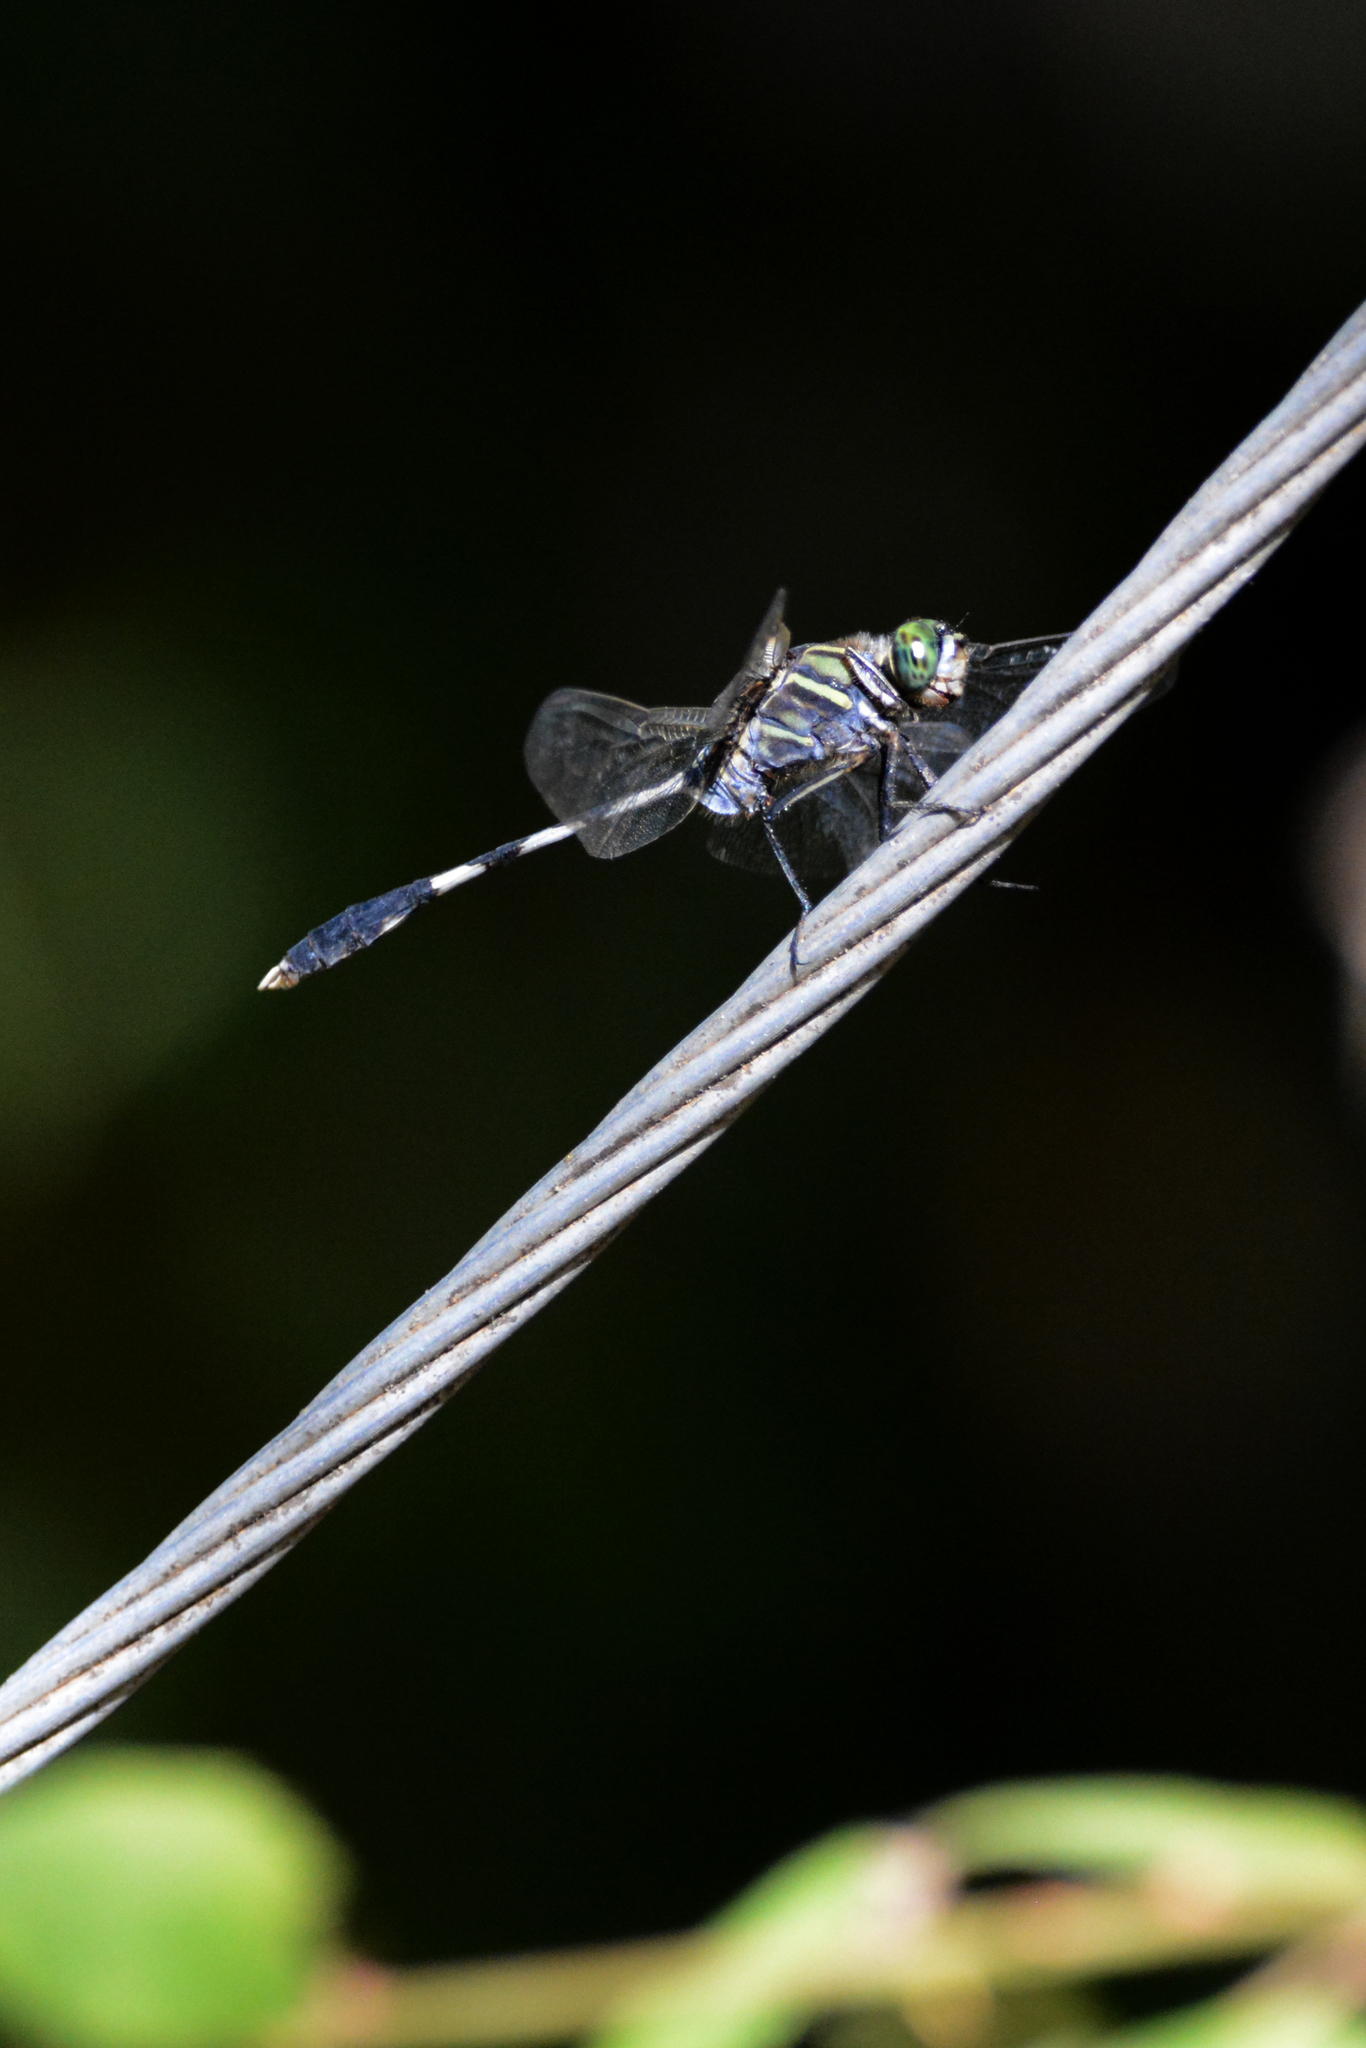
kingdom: Animalia
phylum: Arthropoda
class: Insecta
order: Odonata
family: Libellulidae
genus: Orthetrum
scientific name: Orthetrum sabina
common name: Slender skimmer
